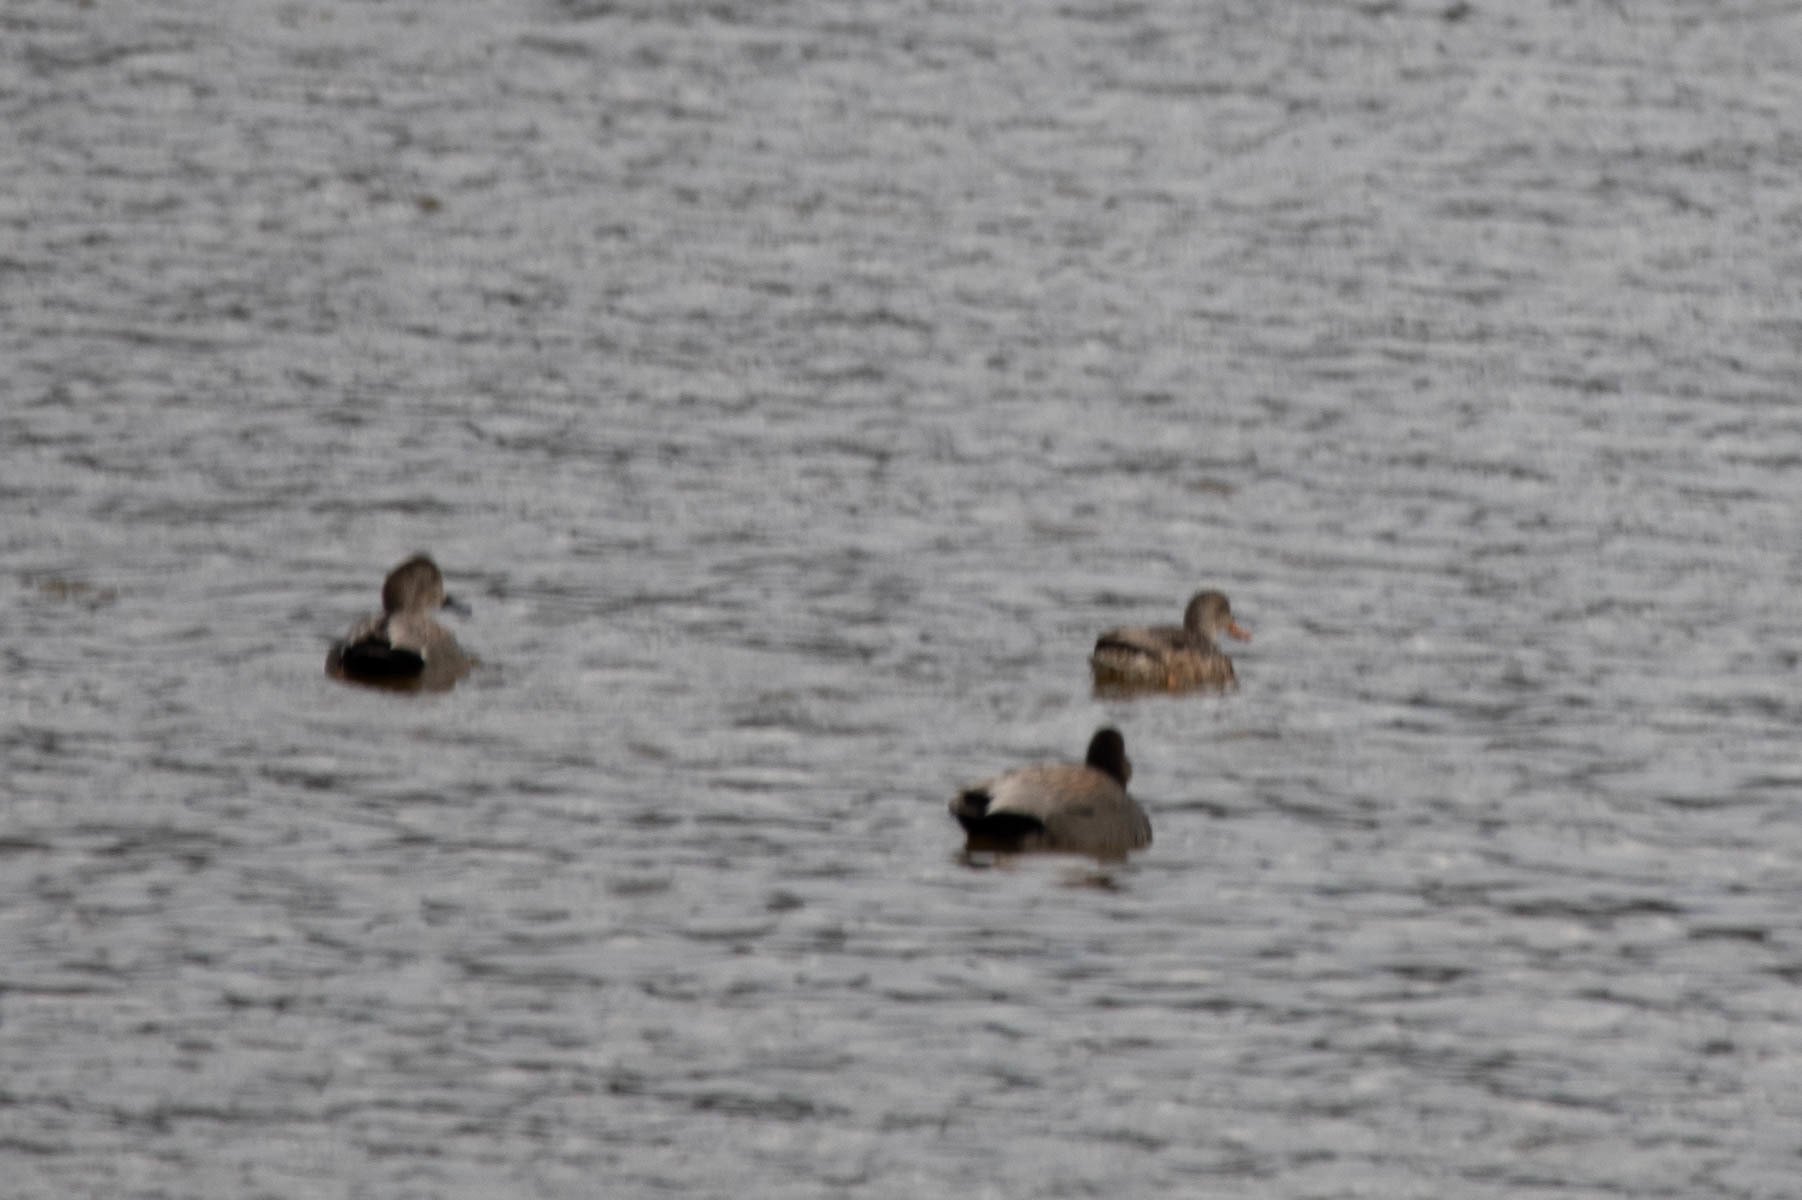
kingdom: Animalia
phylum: Chordata
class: Aves
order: Anseriformes
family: Anatidae
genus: Mareca
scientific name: Mareca strepera
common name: Gadwall
